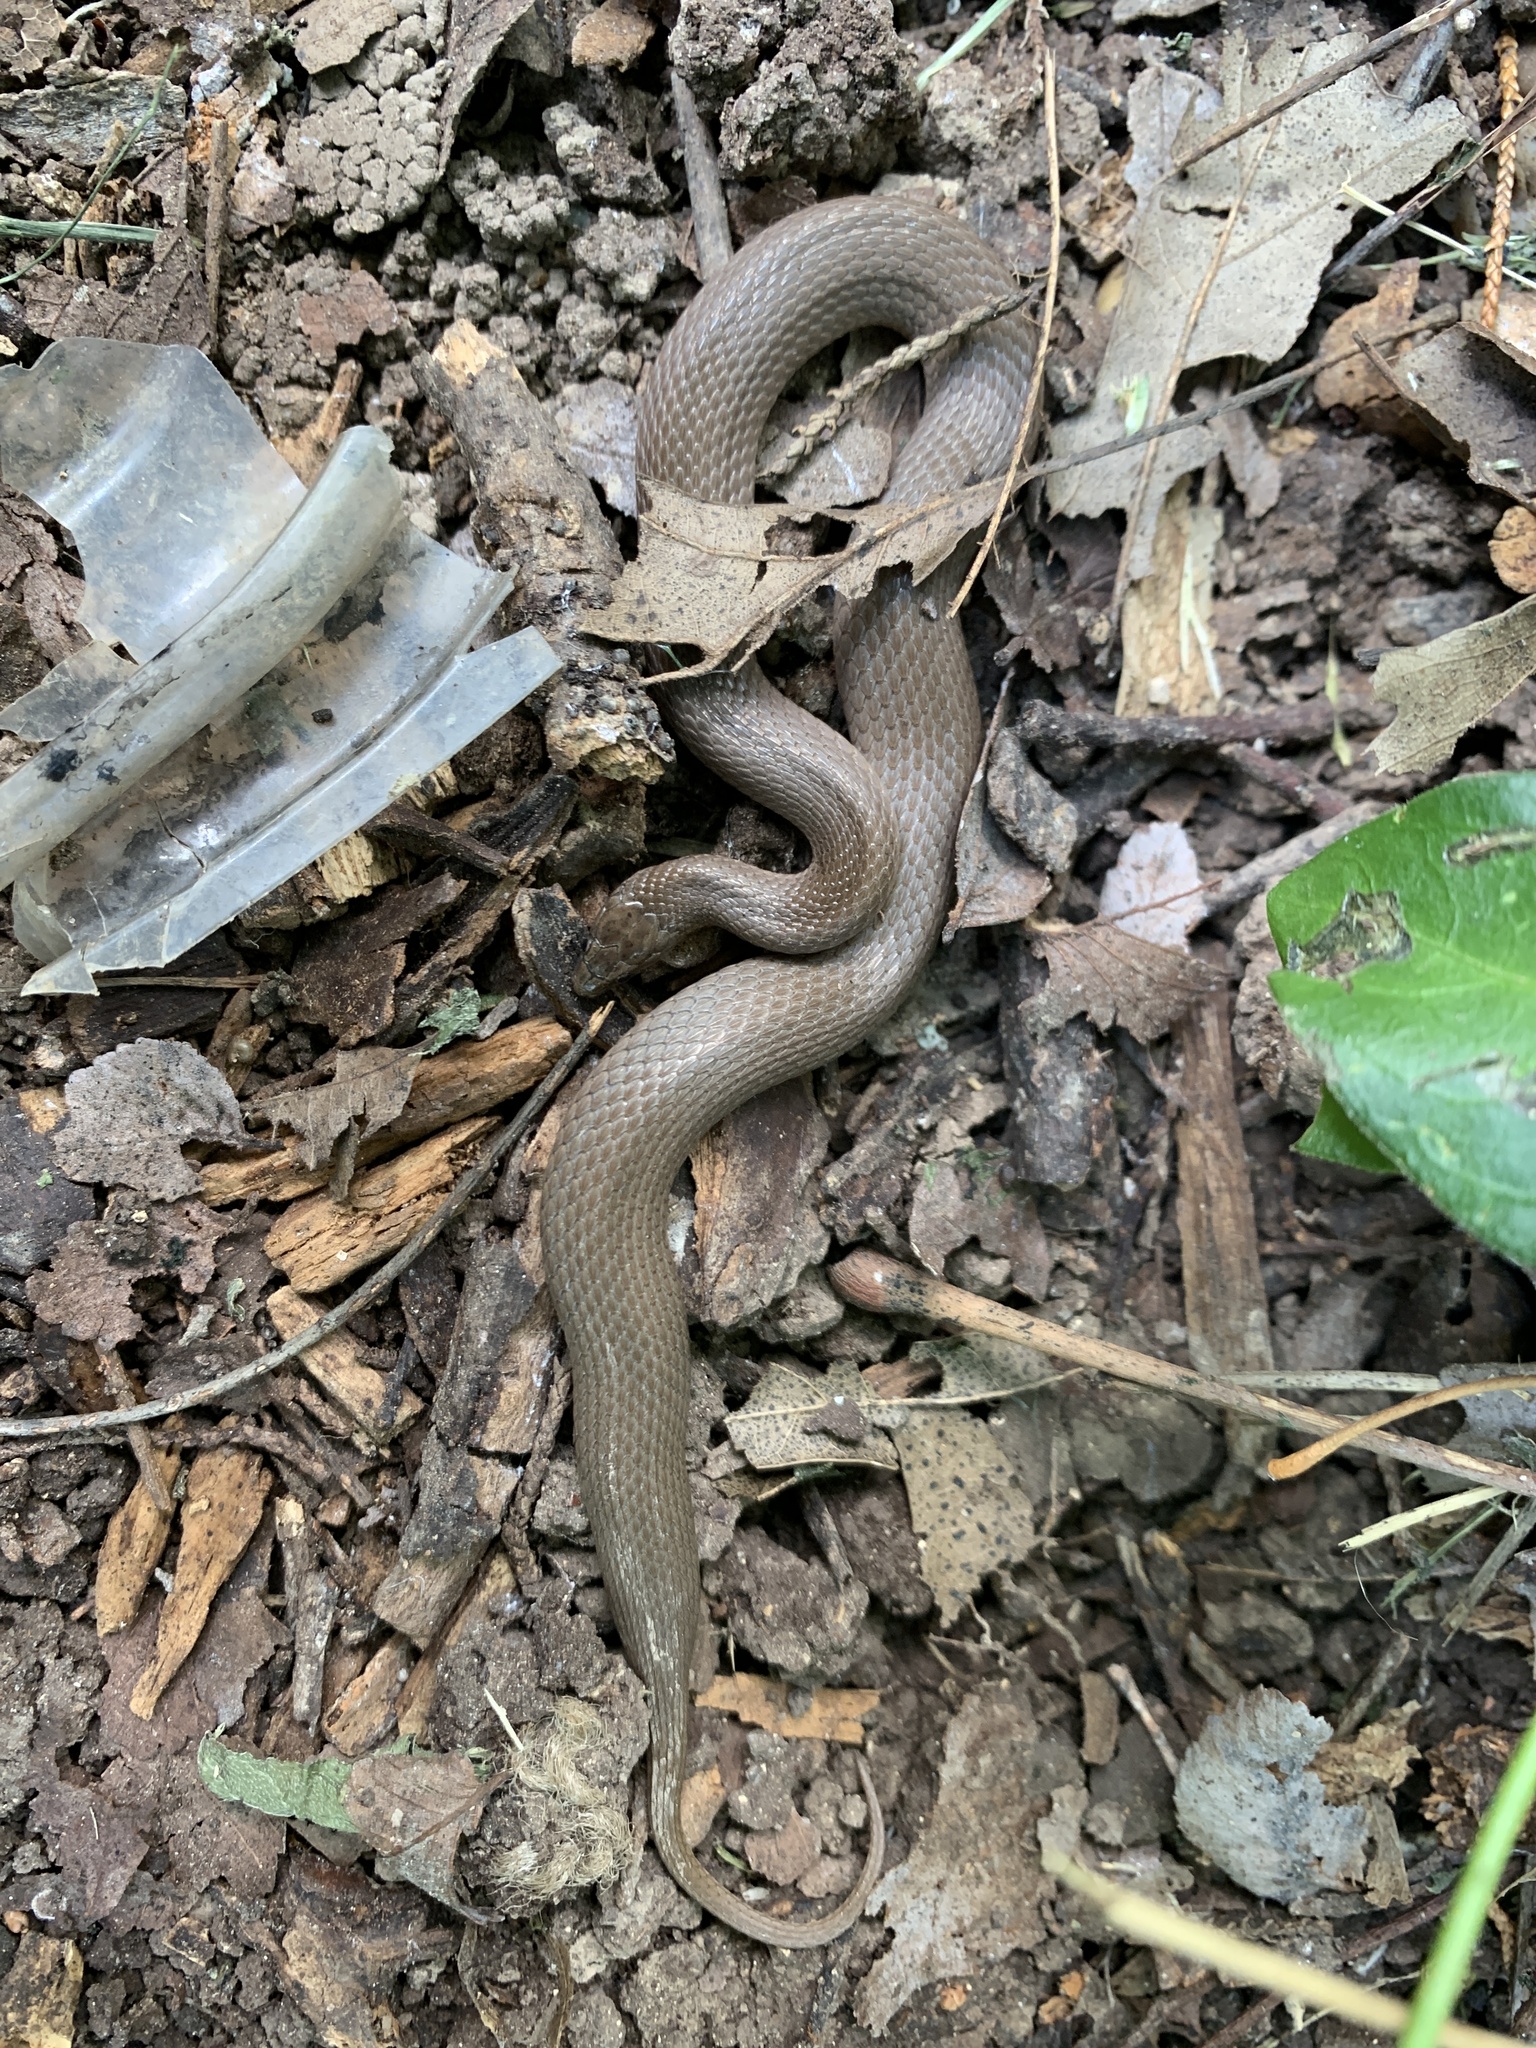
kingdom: Animalia
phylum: Chordata
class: Squamata
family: Colubridae
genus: Haldea
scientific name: Haldea striatula
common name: Rough earth snake
